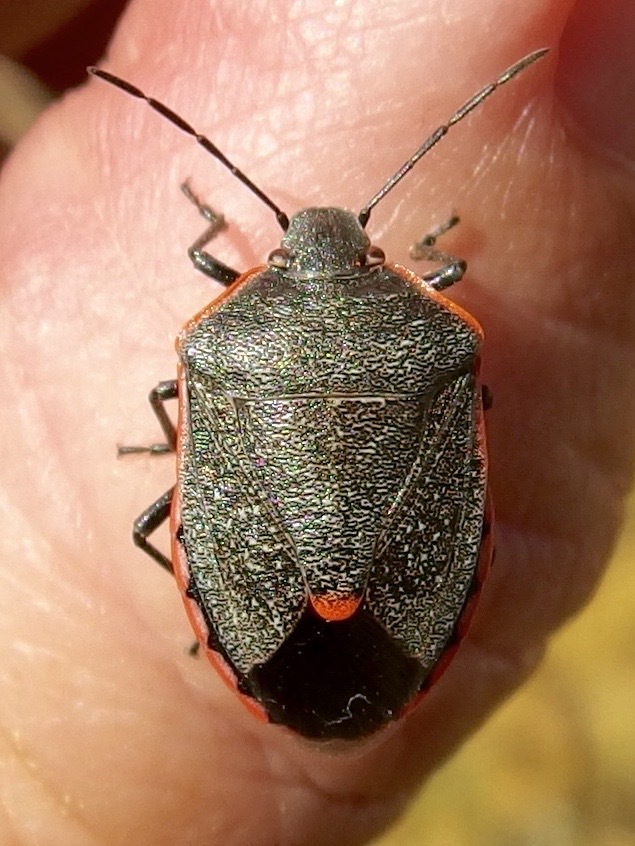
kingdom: Animalia
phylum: Arthropoda
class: Insecta
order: Hemiptera
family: Pentatomidae
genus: Chlorochroa
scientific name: Chlorochroa ligata
